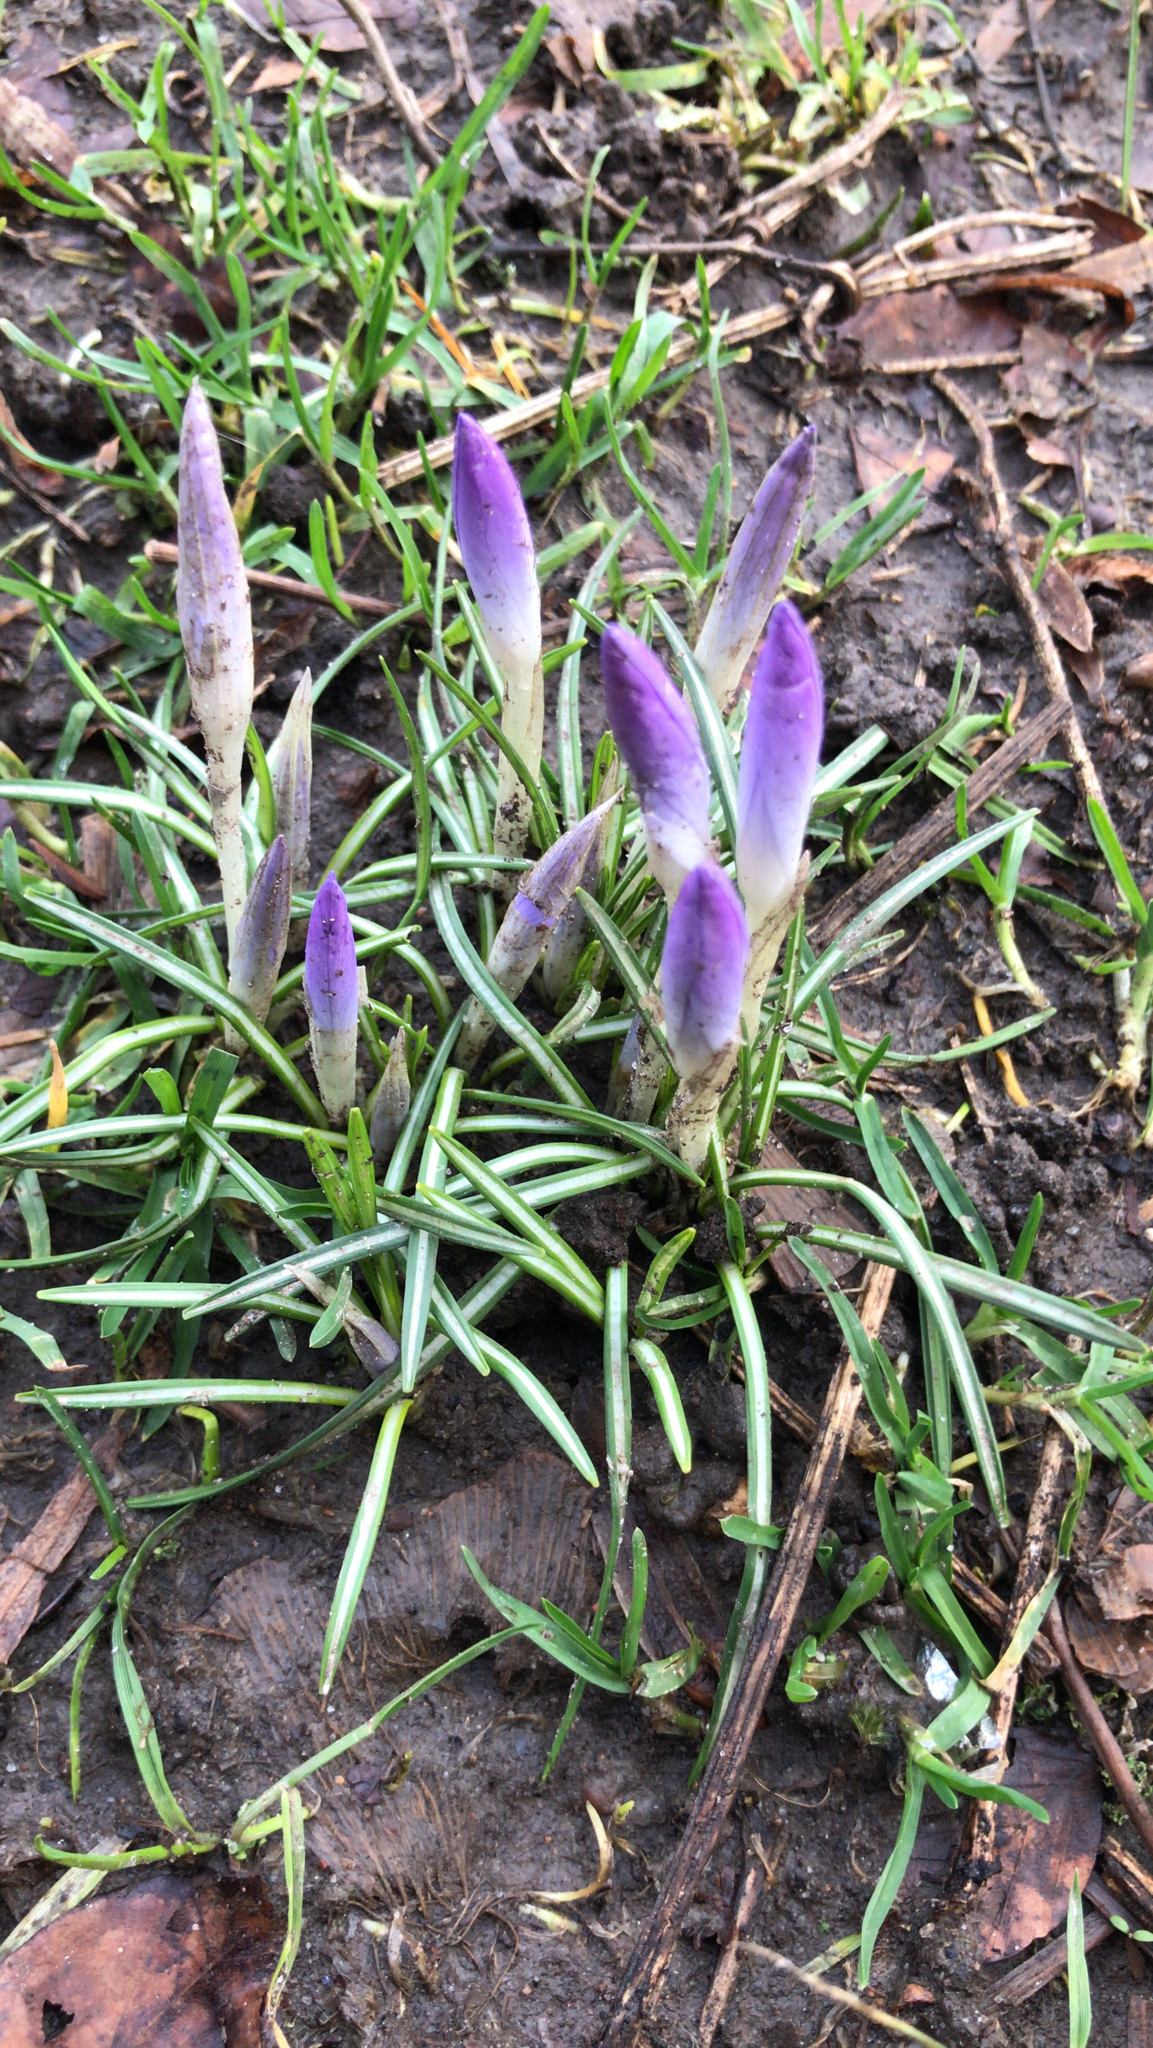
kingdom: Plantae
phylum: Tracheophyta
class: Liliopsida
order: Asparagales
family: Iridaceae
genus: Crocus
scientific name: Crocus tommasinianus
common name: Early crocus
